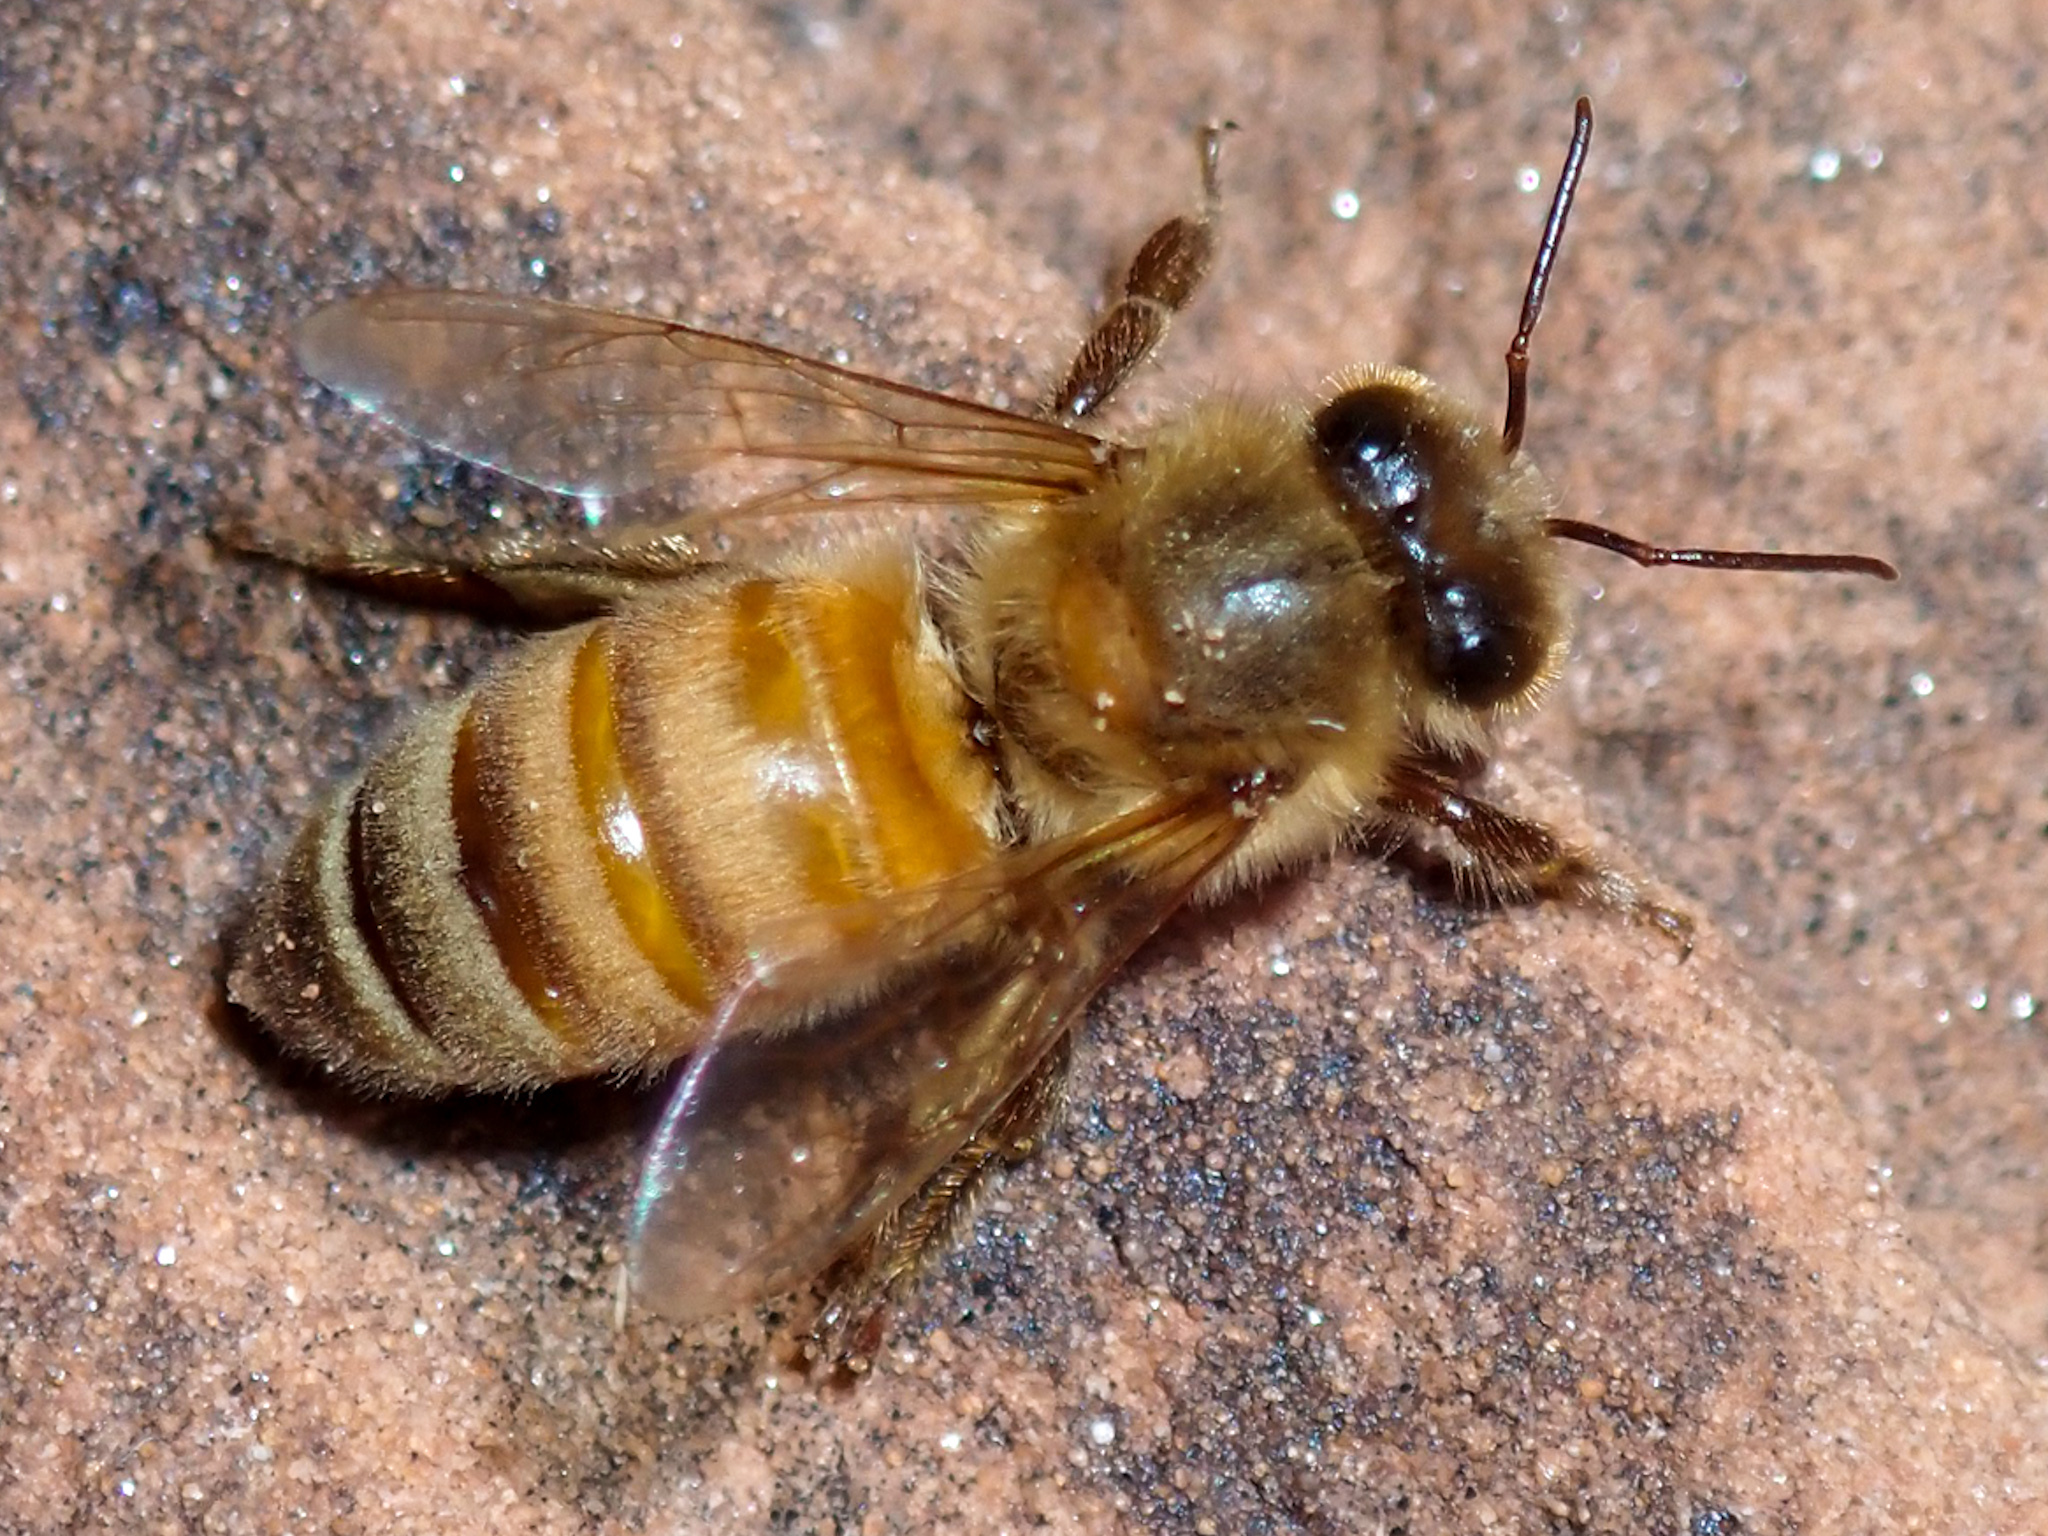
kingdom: Animalia
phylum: Arthropoda
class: Insecta
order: Hymenoptera
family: Apidae
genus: Apis
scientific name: Apis mellifera
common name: Honey bee
